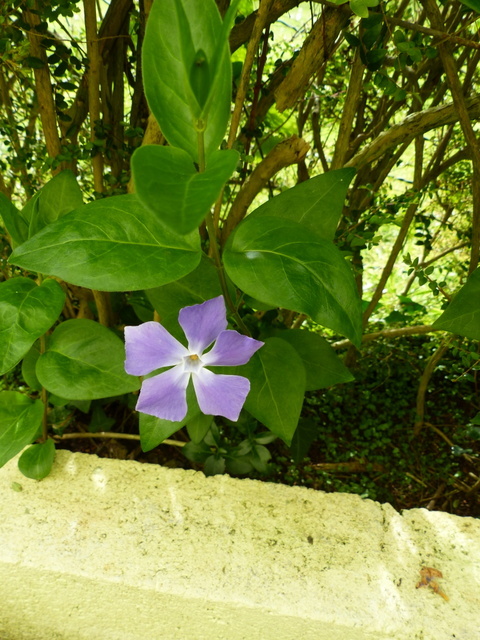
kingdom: Plantae
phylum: Tracheophyta
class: Magnoliopsida
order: Gentianales
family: Apocynaceae
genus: Vinca
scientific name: Vinca major
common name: Greater periwinkle
